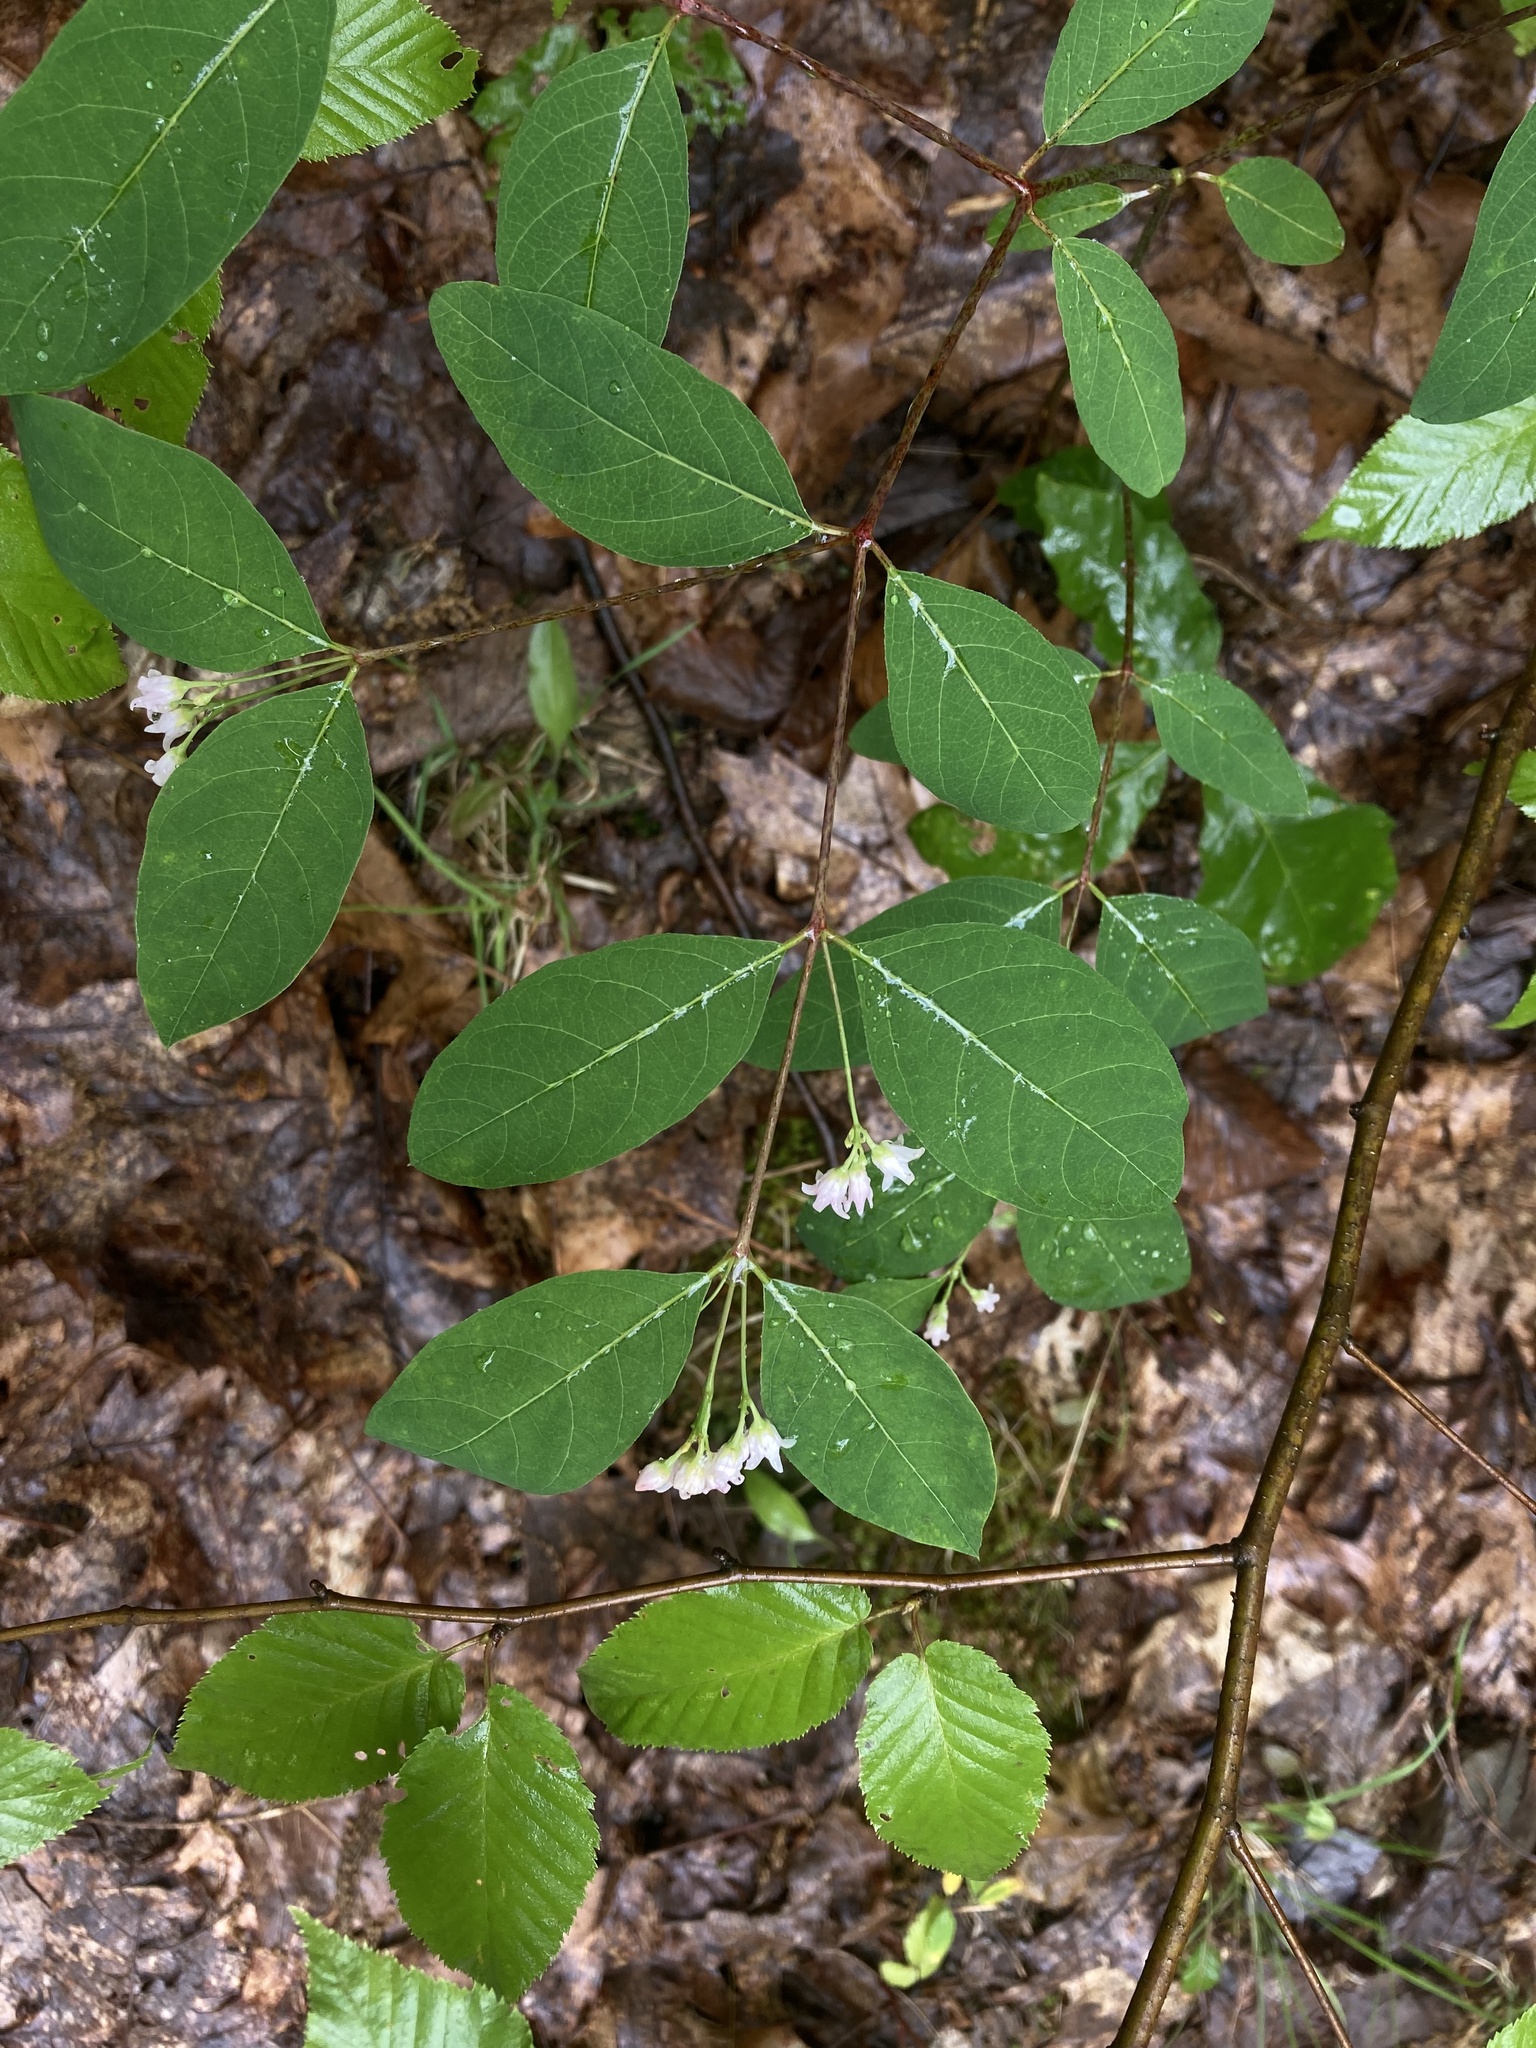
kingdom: Plantae
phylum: Tracheophyta
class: Magnoliopsida
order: Gentianales
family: Apocynaceae
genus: Apocynum
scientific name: Apocynum androsaemifolium
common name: Spreading dogbane
